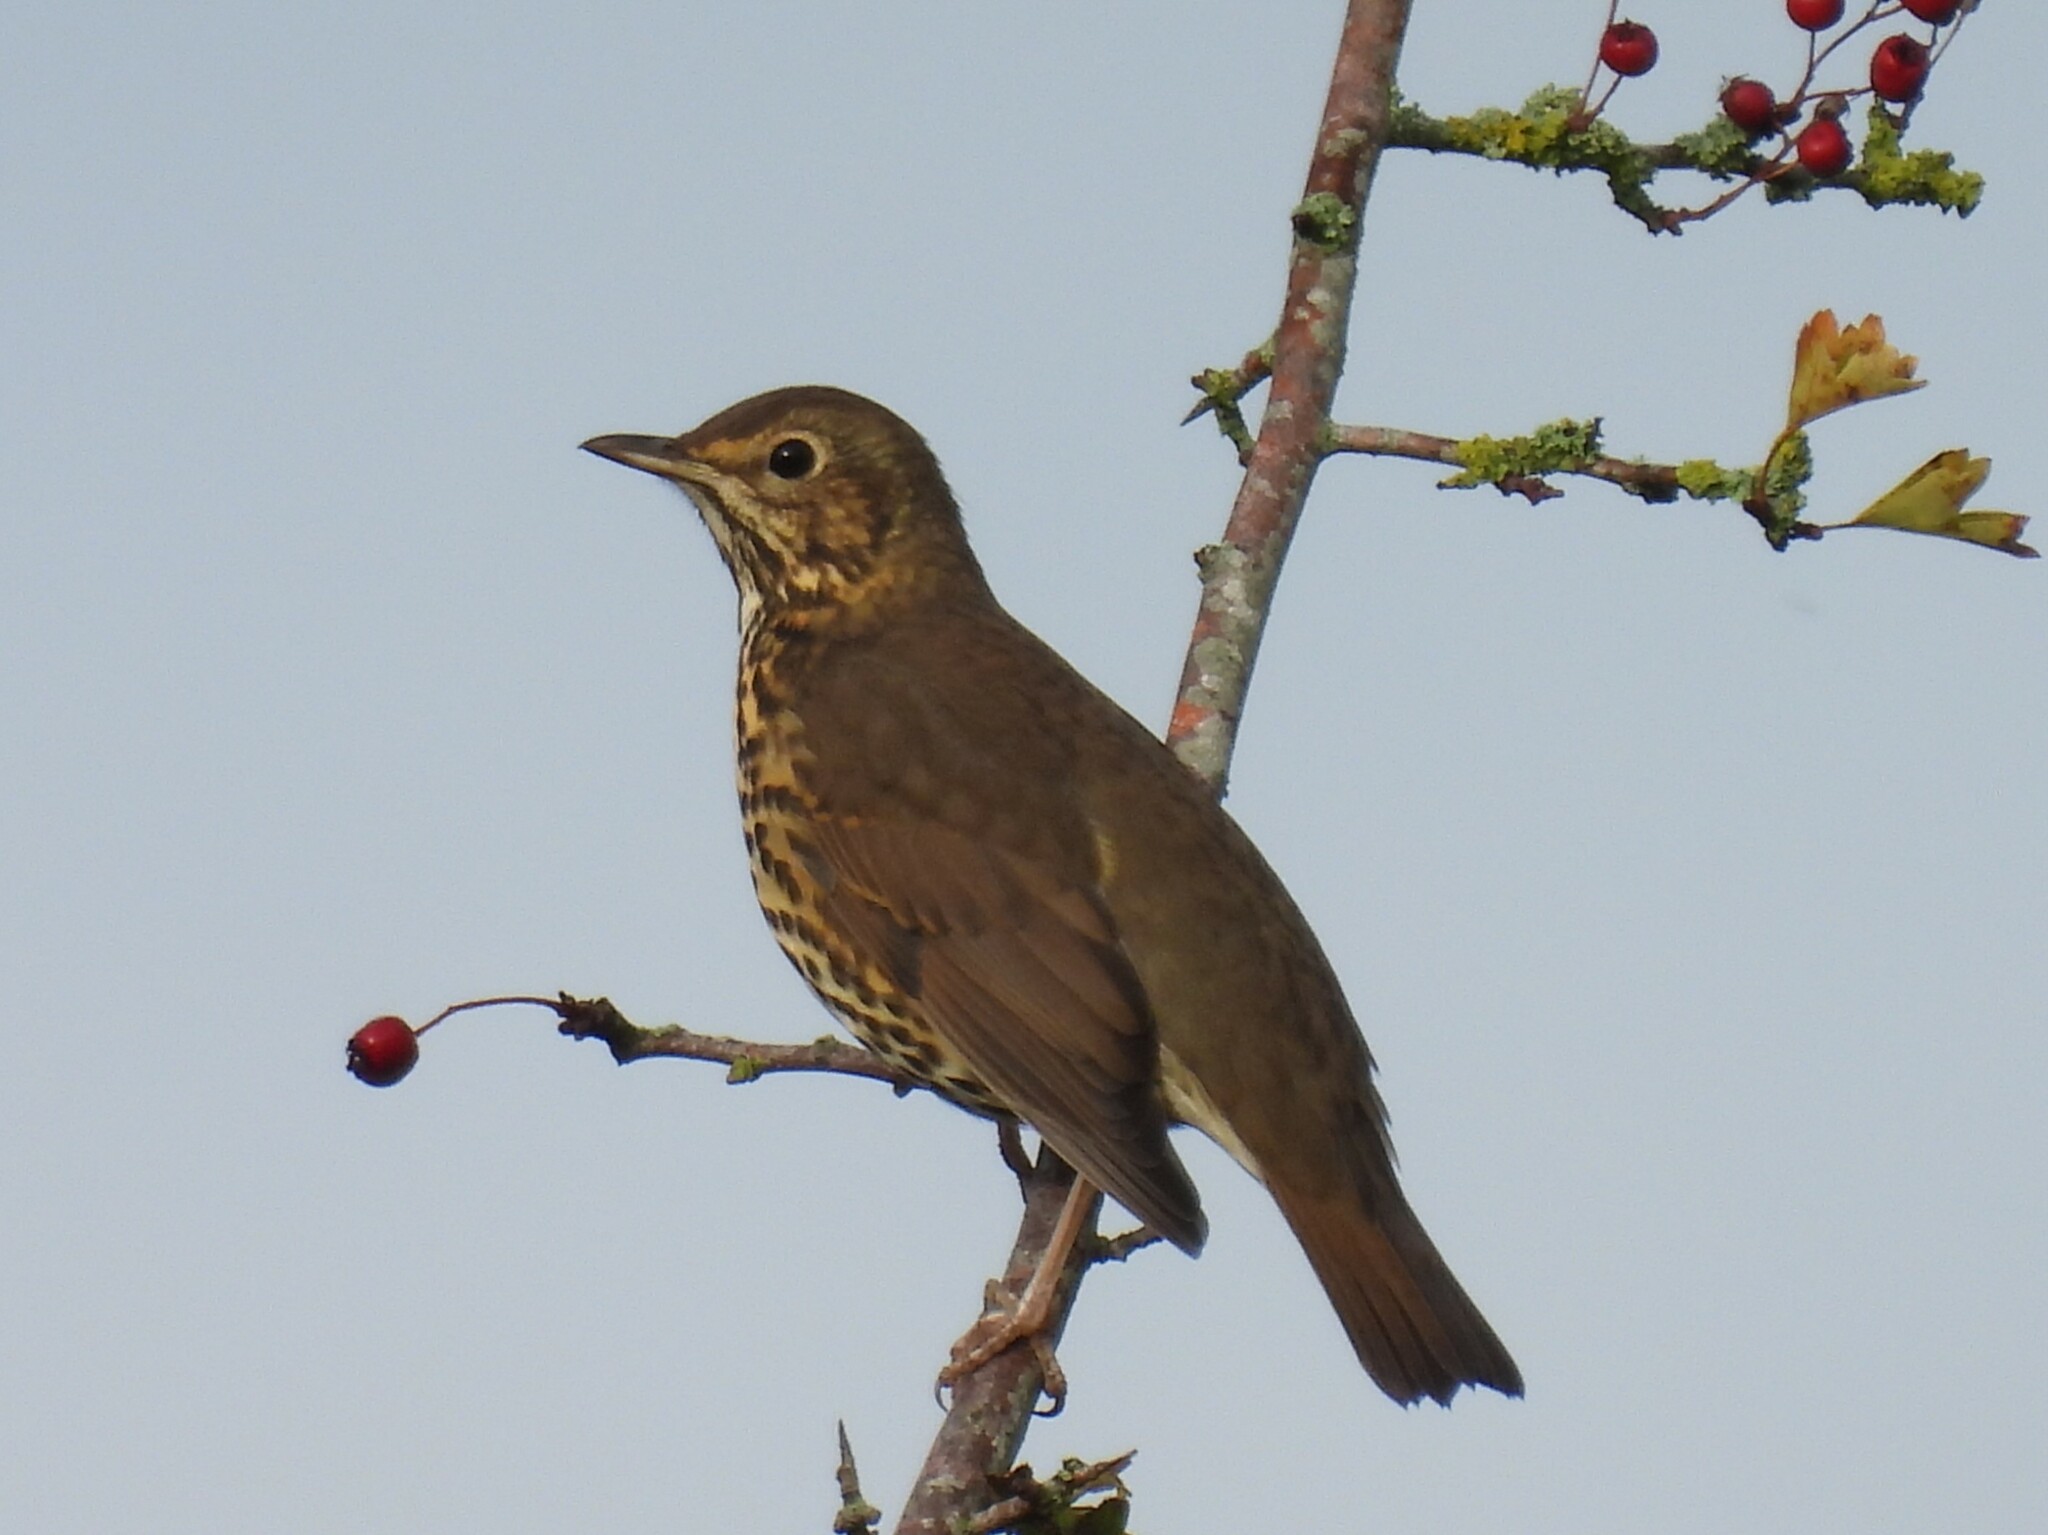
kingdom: Animalia
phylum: Chordata
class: Aves
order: Passeriformes
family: Turdidae
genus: Turdus
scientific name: Turdus philomelos
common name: Song thrush
